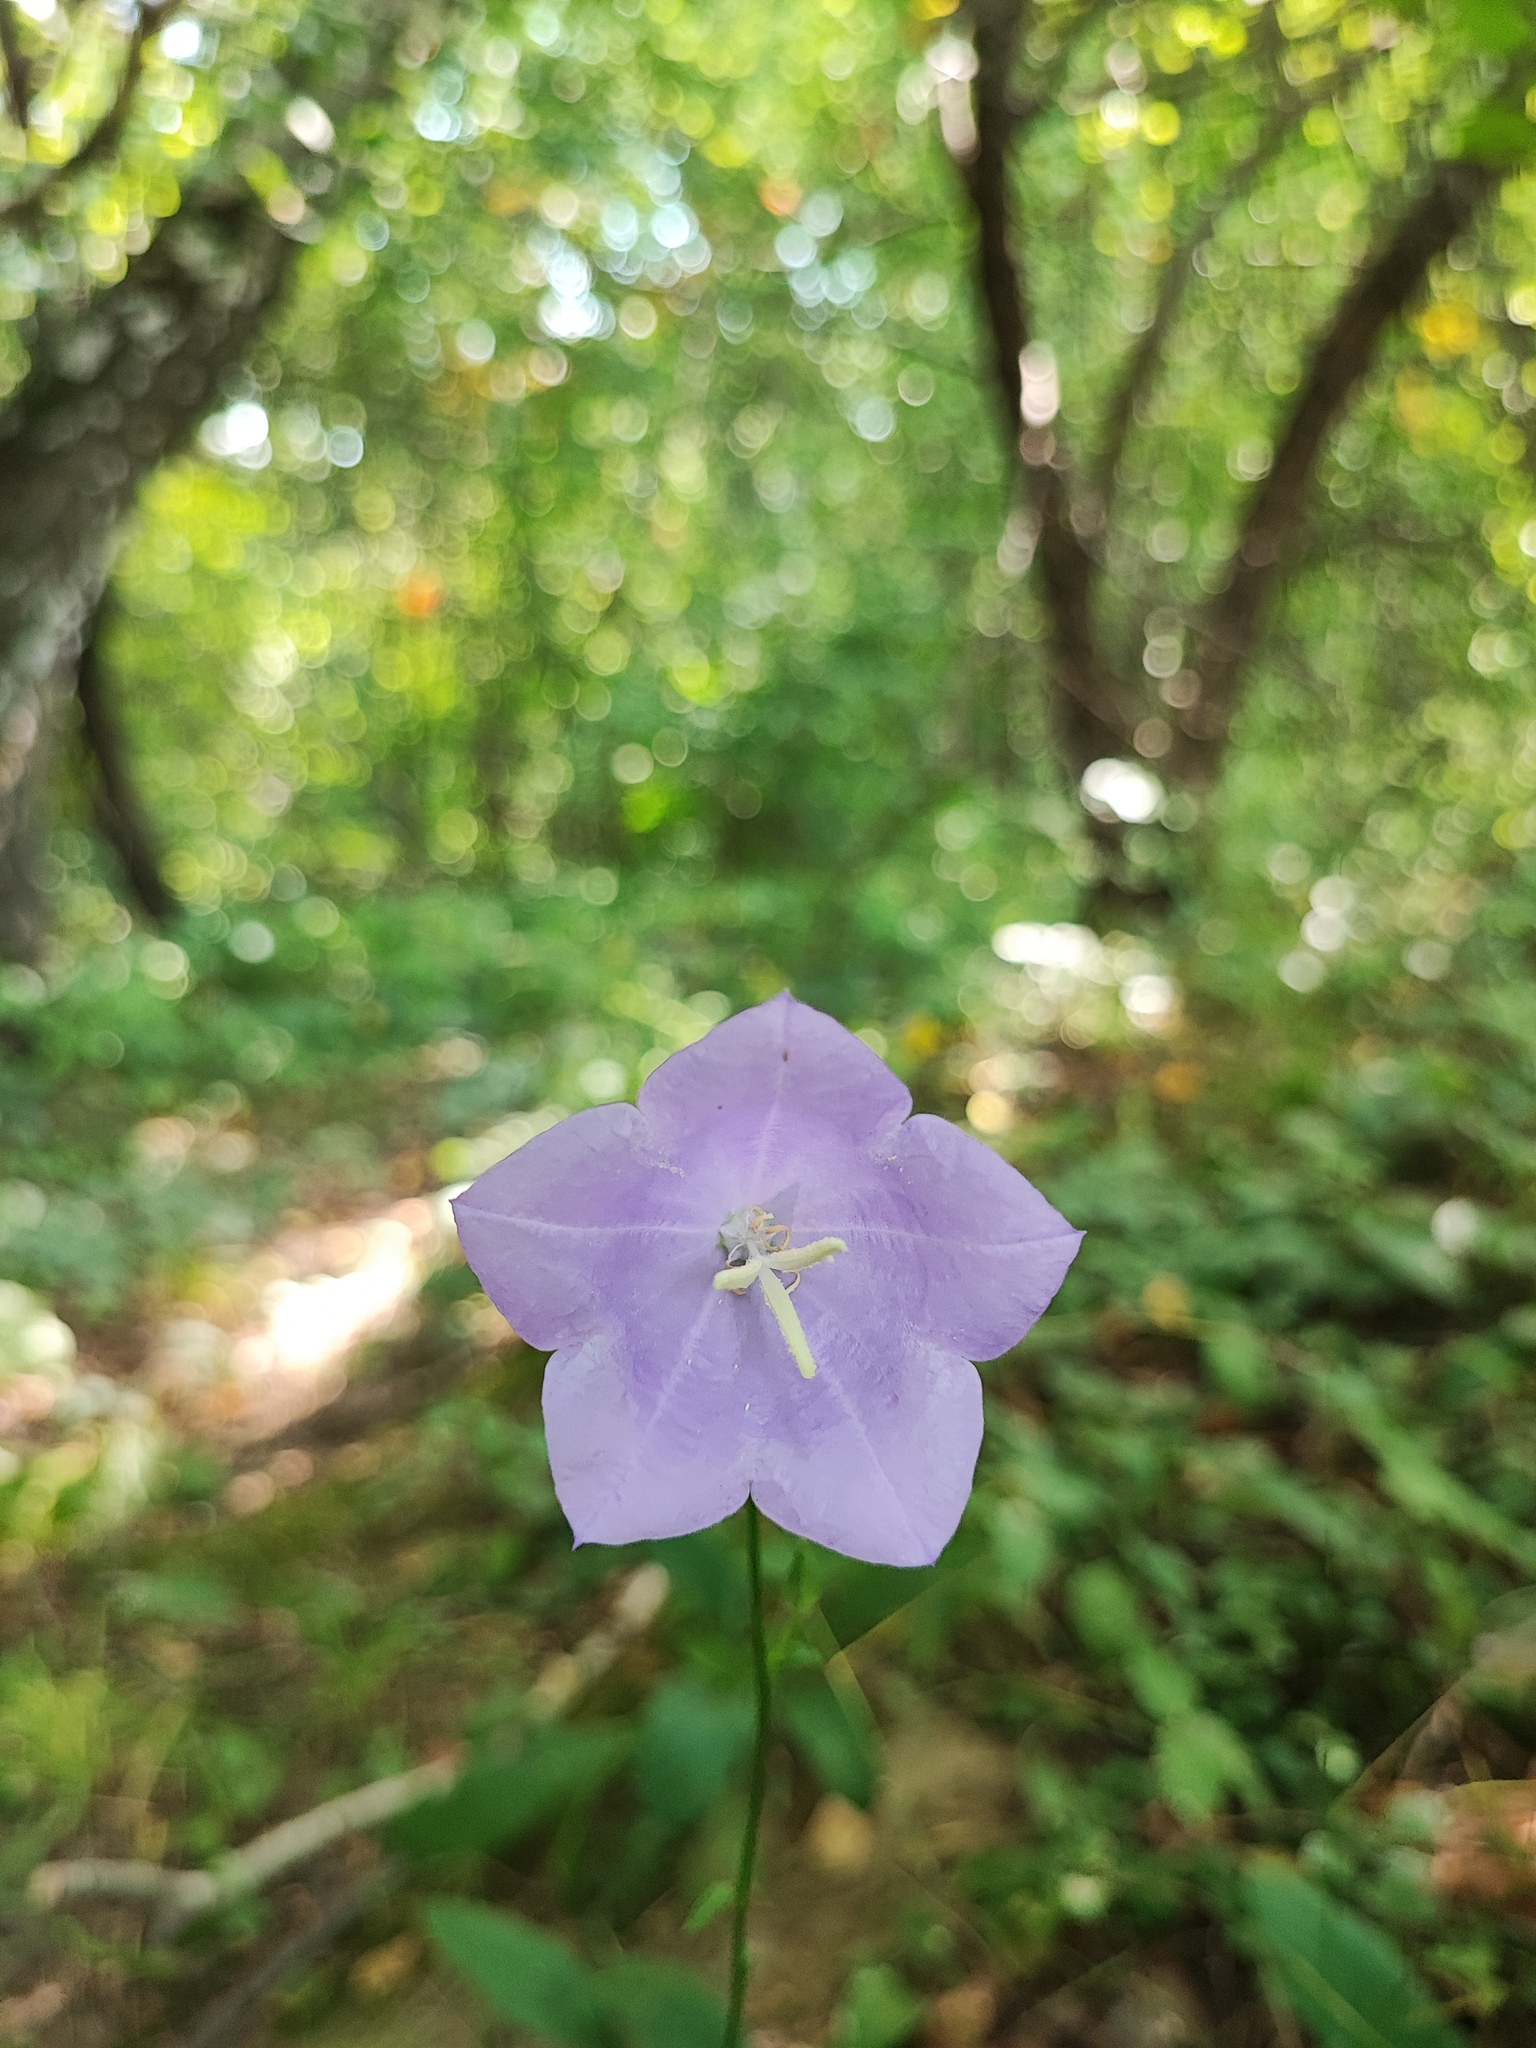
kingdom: Plantae
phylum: Tracheophyta
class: Magnoliopsida
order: Asterales
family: Campanulaceae
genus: Campanula
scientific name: Campanula persicifolia
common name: Peach-leaved bellflower
